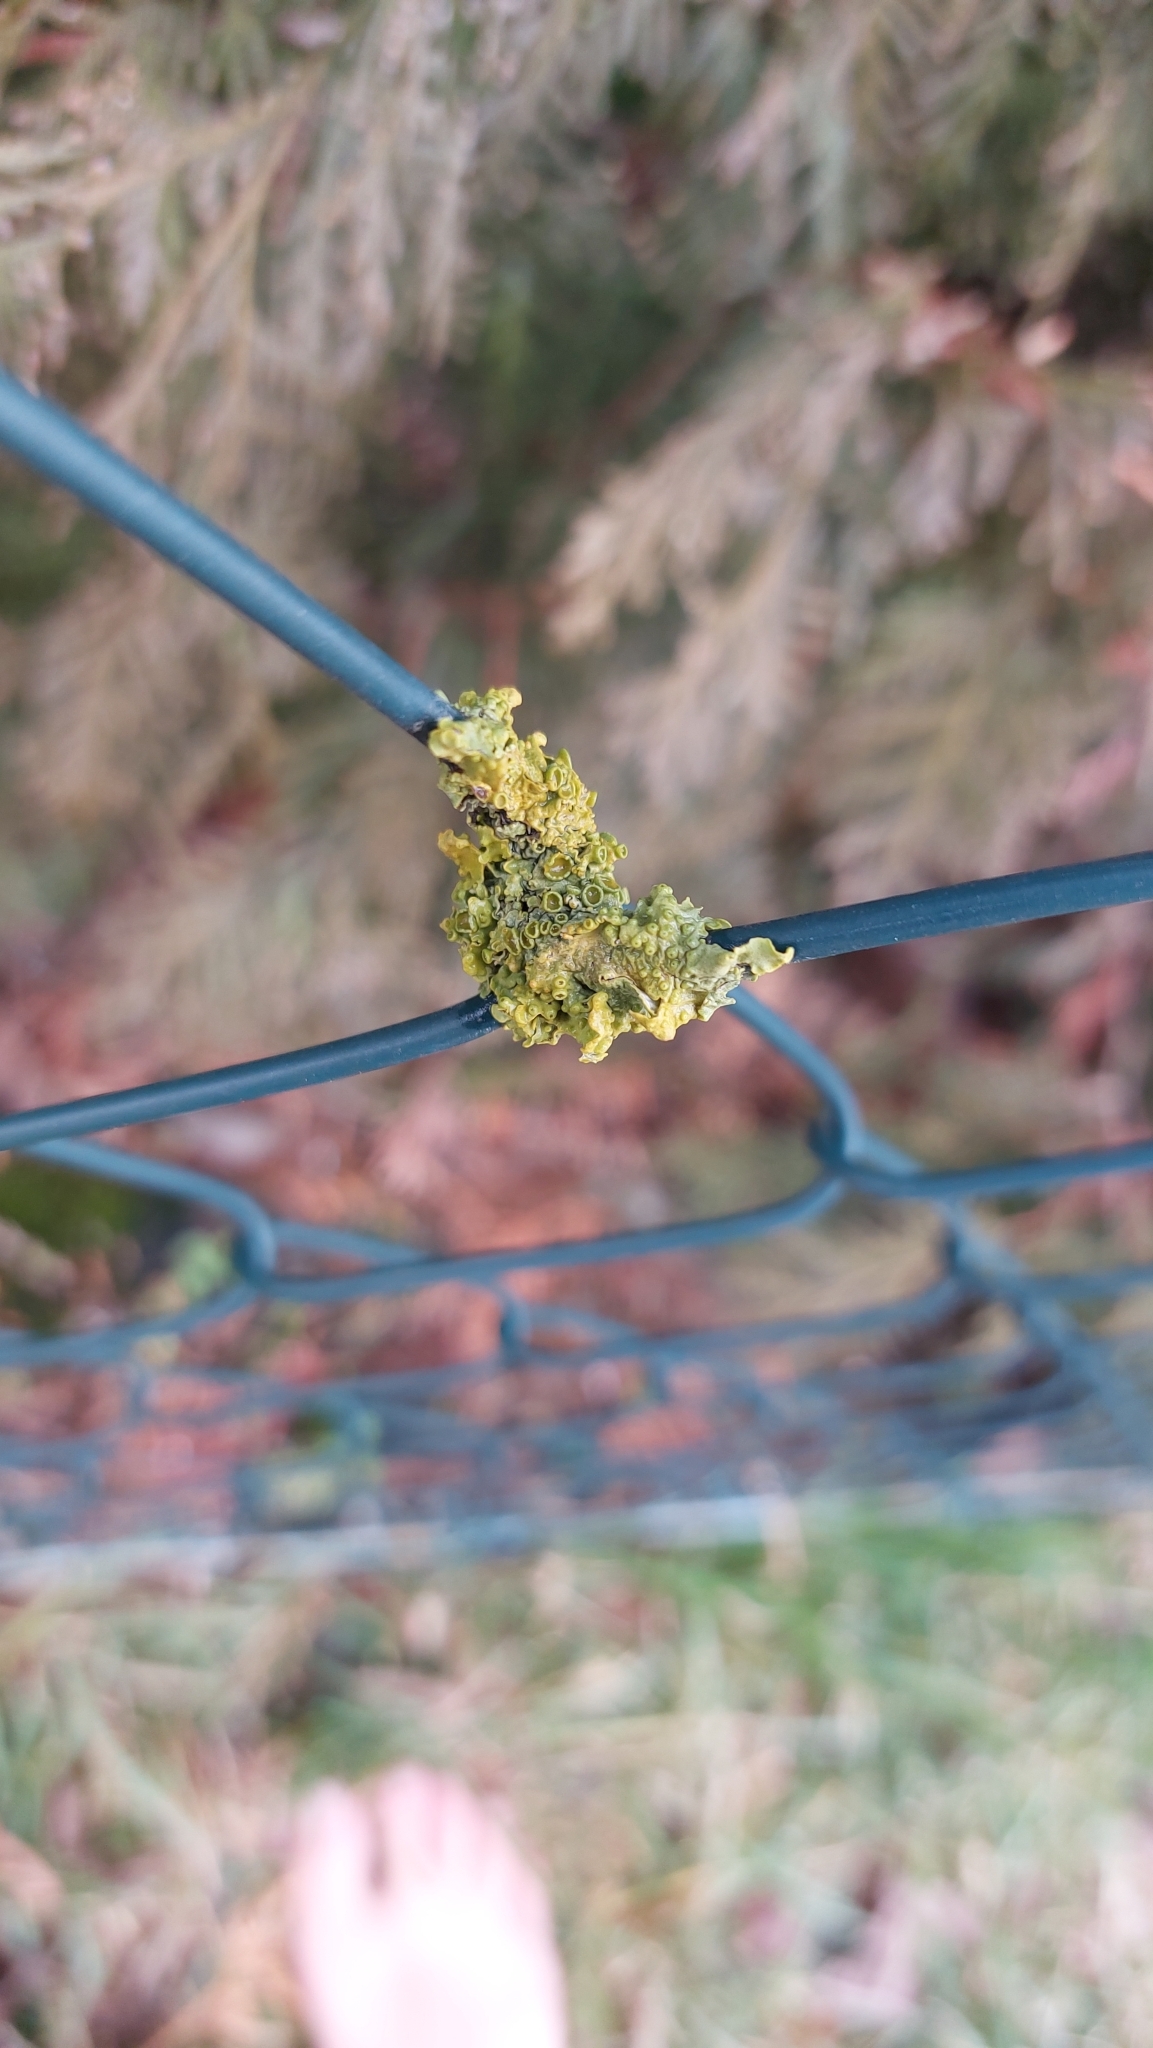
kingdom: Fungi
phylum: Ascomycota
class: Lecanoromycetes
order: Teloschistales
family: Teloschistaceae
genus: Xanthoria
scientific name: Xanthoria parietina
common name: Common orange lichen
